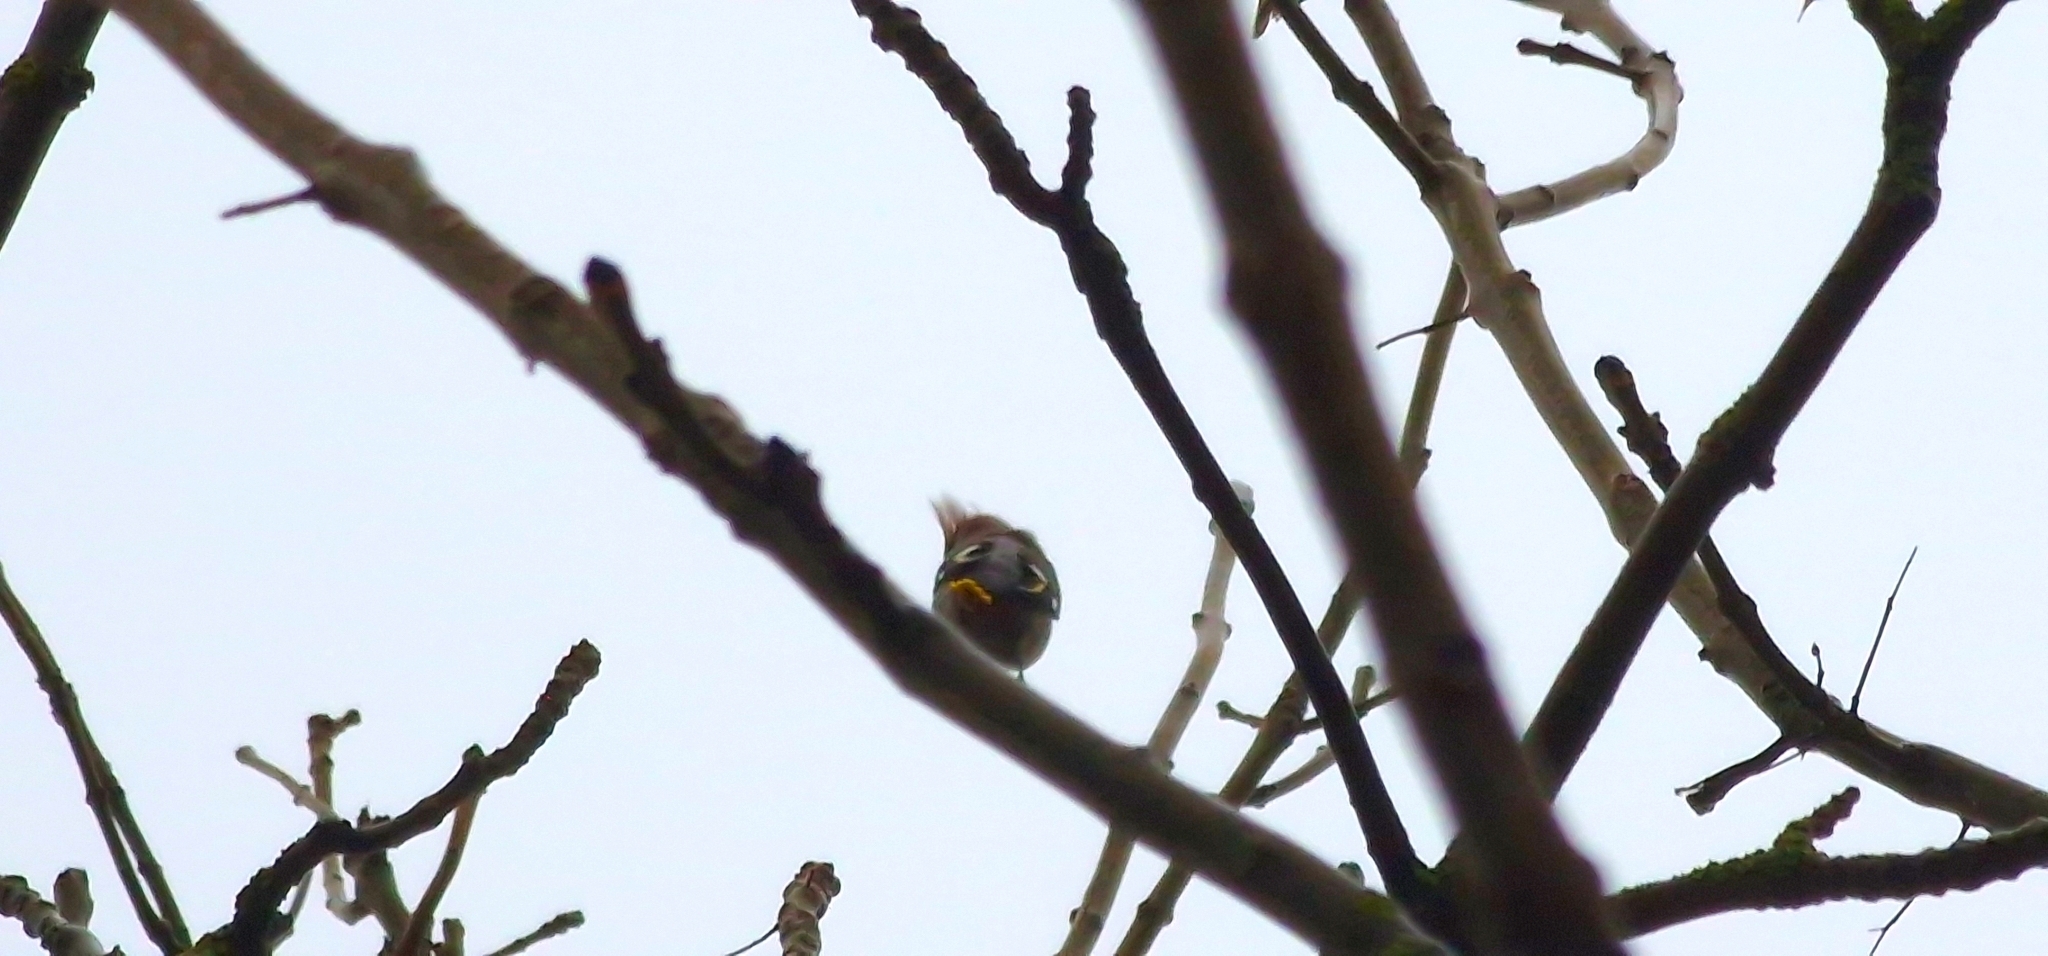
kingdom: Animalia
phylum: Chordata
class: Aves
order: Passeriformes
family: Bombycillidae
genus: Bombycilla
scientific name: Bombycilla garrulus
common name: Bohemian waxwing
